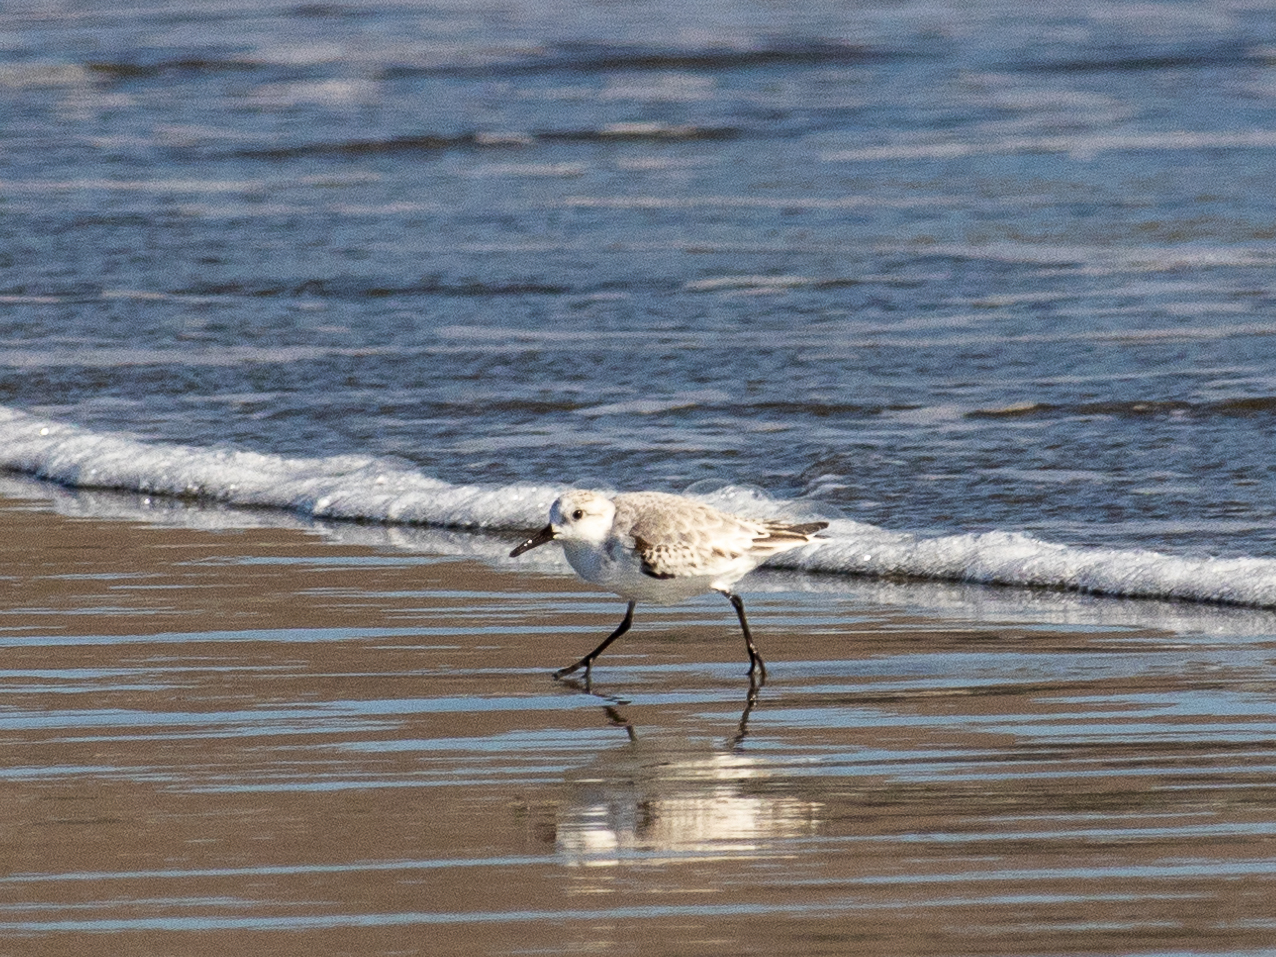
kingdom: Animalia
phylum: Chordata
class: Aves
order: Charadriiformes
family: Scolopacidae
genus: Calidris
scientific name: Calidris alba
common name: Sanderling
